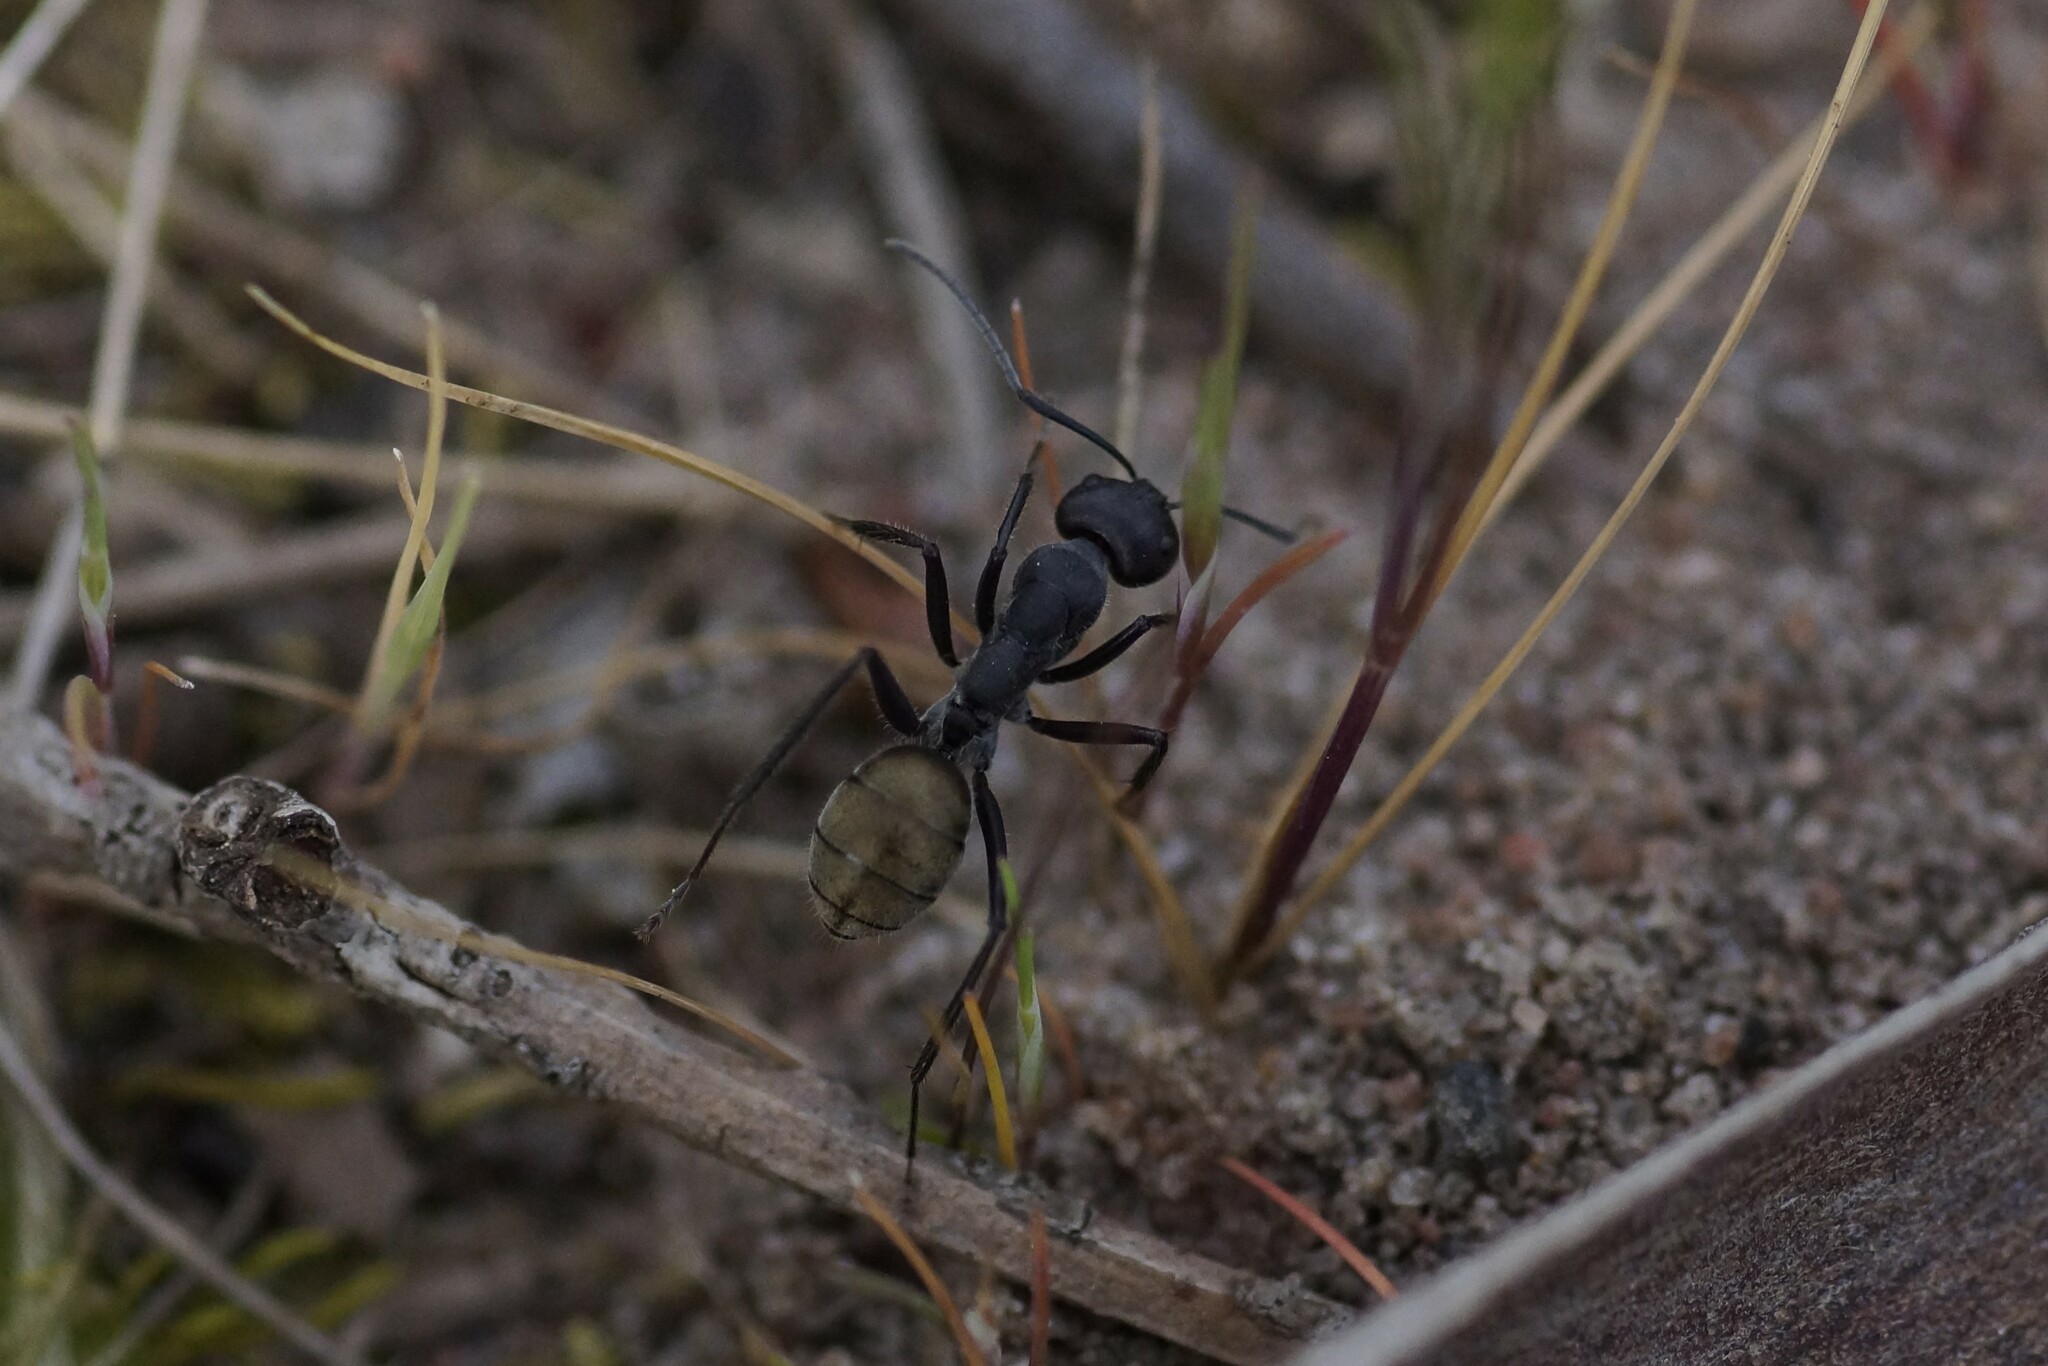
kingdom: Animalia
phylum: Arthropoda
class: Insecta
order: Hymenoptera
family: Formicidae
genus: Camponotus
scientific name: Camponotus suffusus
